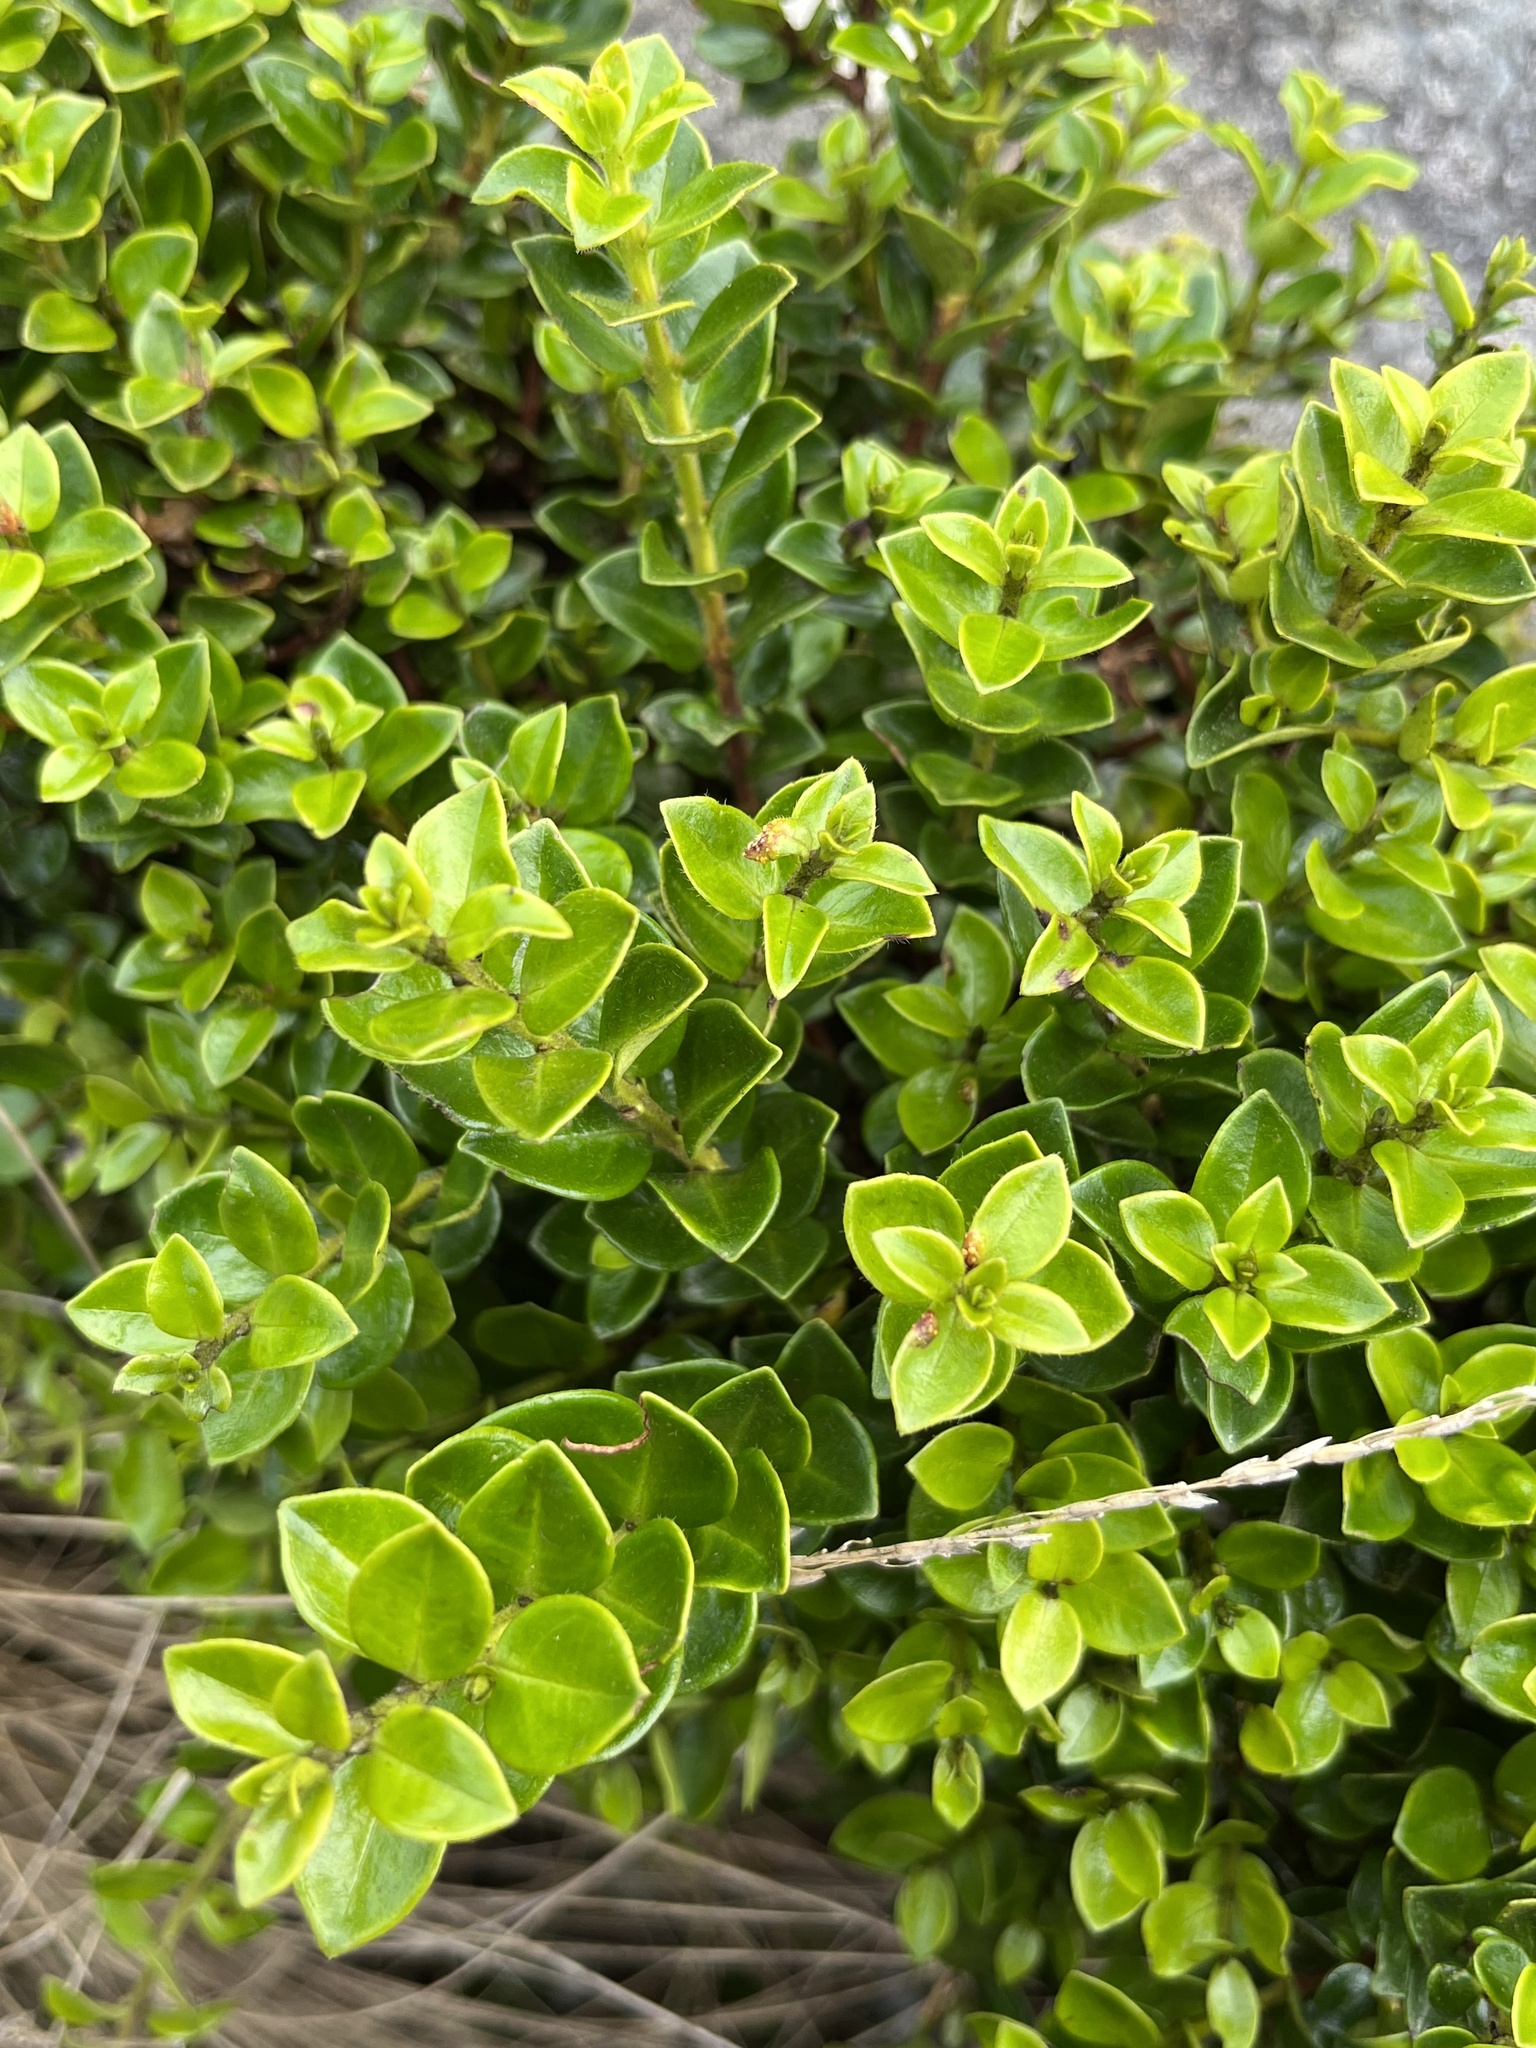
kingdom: Fungi
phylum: Basidiomycota
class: Pucciniomycetes
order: Pucciniales
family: Sphaerophragmiaceae
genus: Austropuccinia
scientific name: Austropuccinia psidii
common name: Myrtle rust
